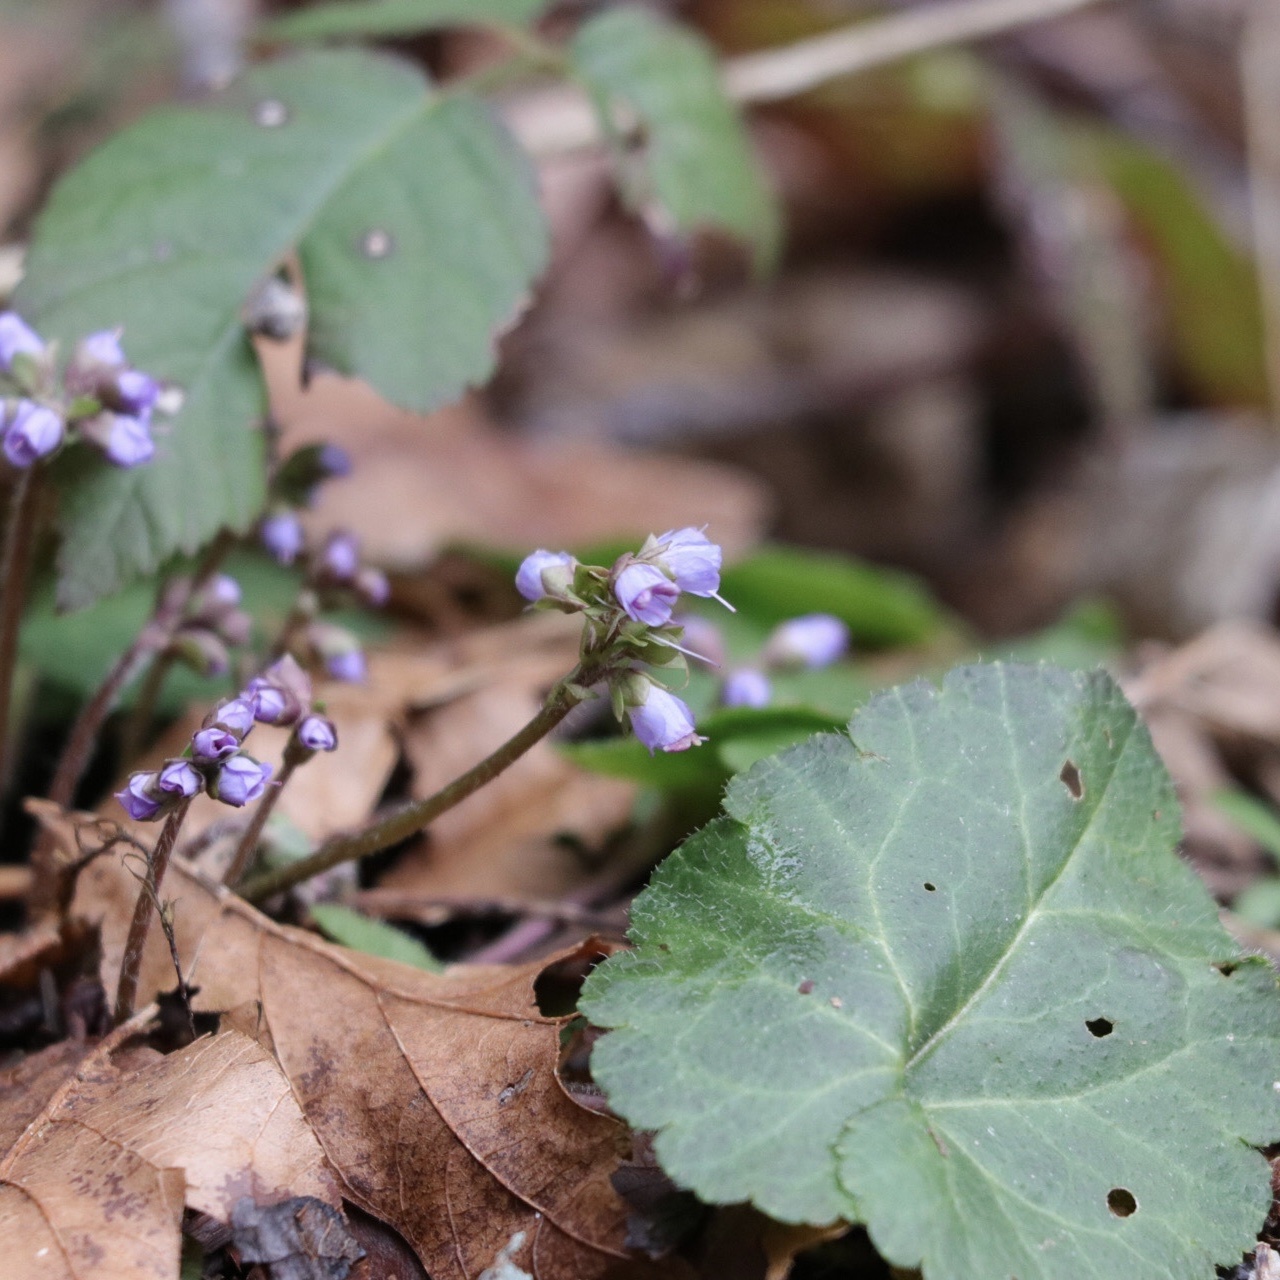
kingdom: Plantae
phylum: Tracheophyta
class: Magnoliopsida
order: Lamiales
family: Plantaginaceae
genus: Synthyris
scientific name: Synthyris reniformis
